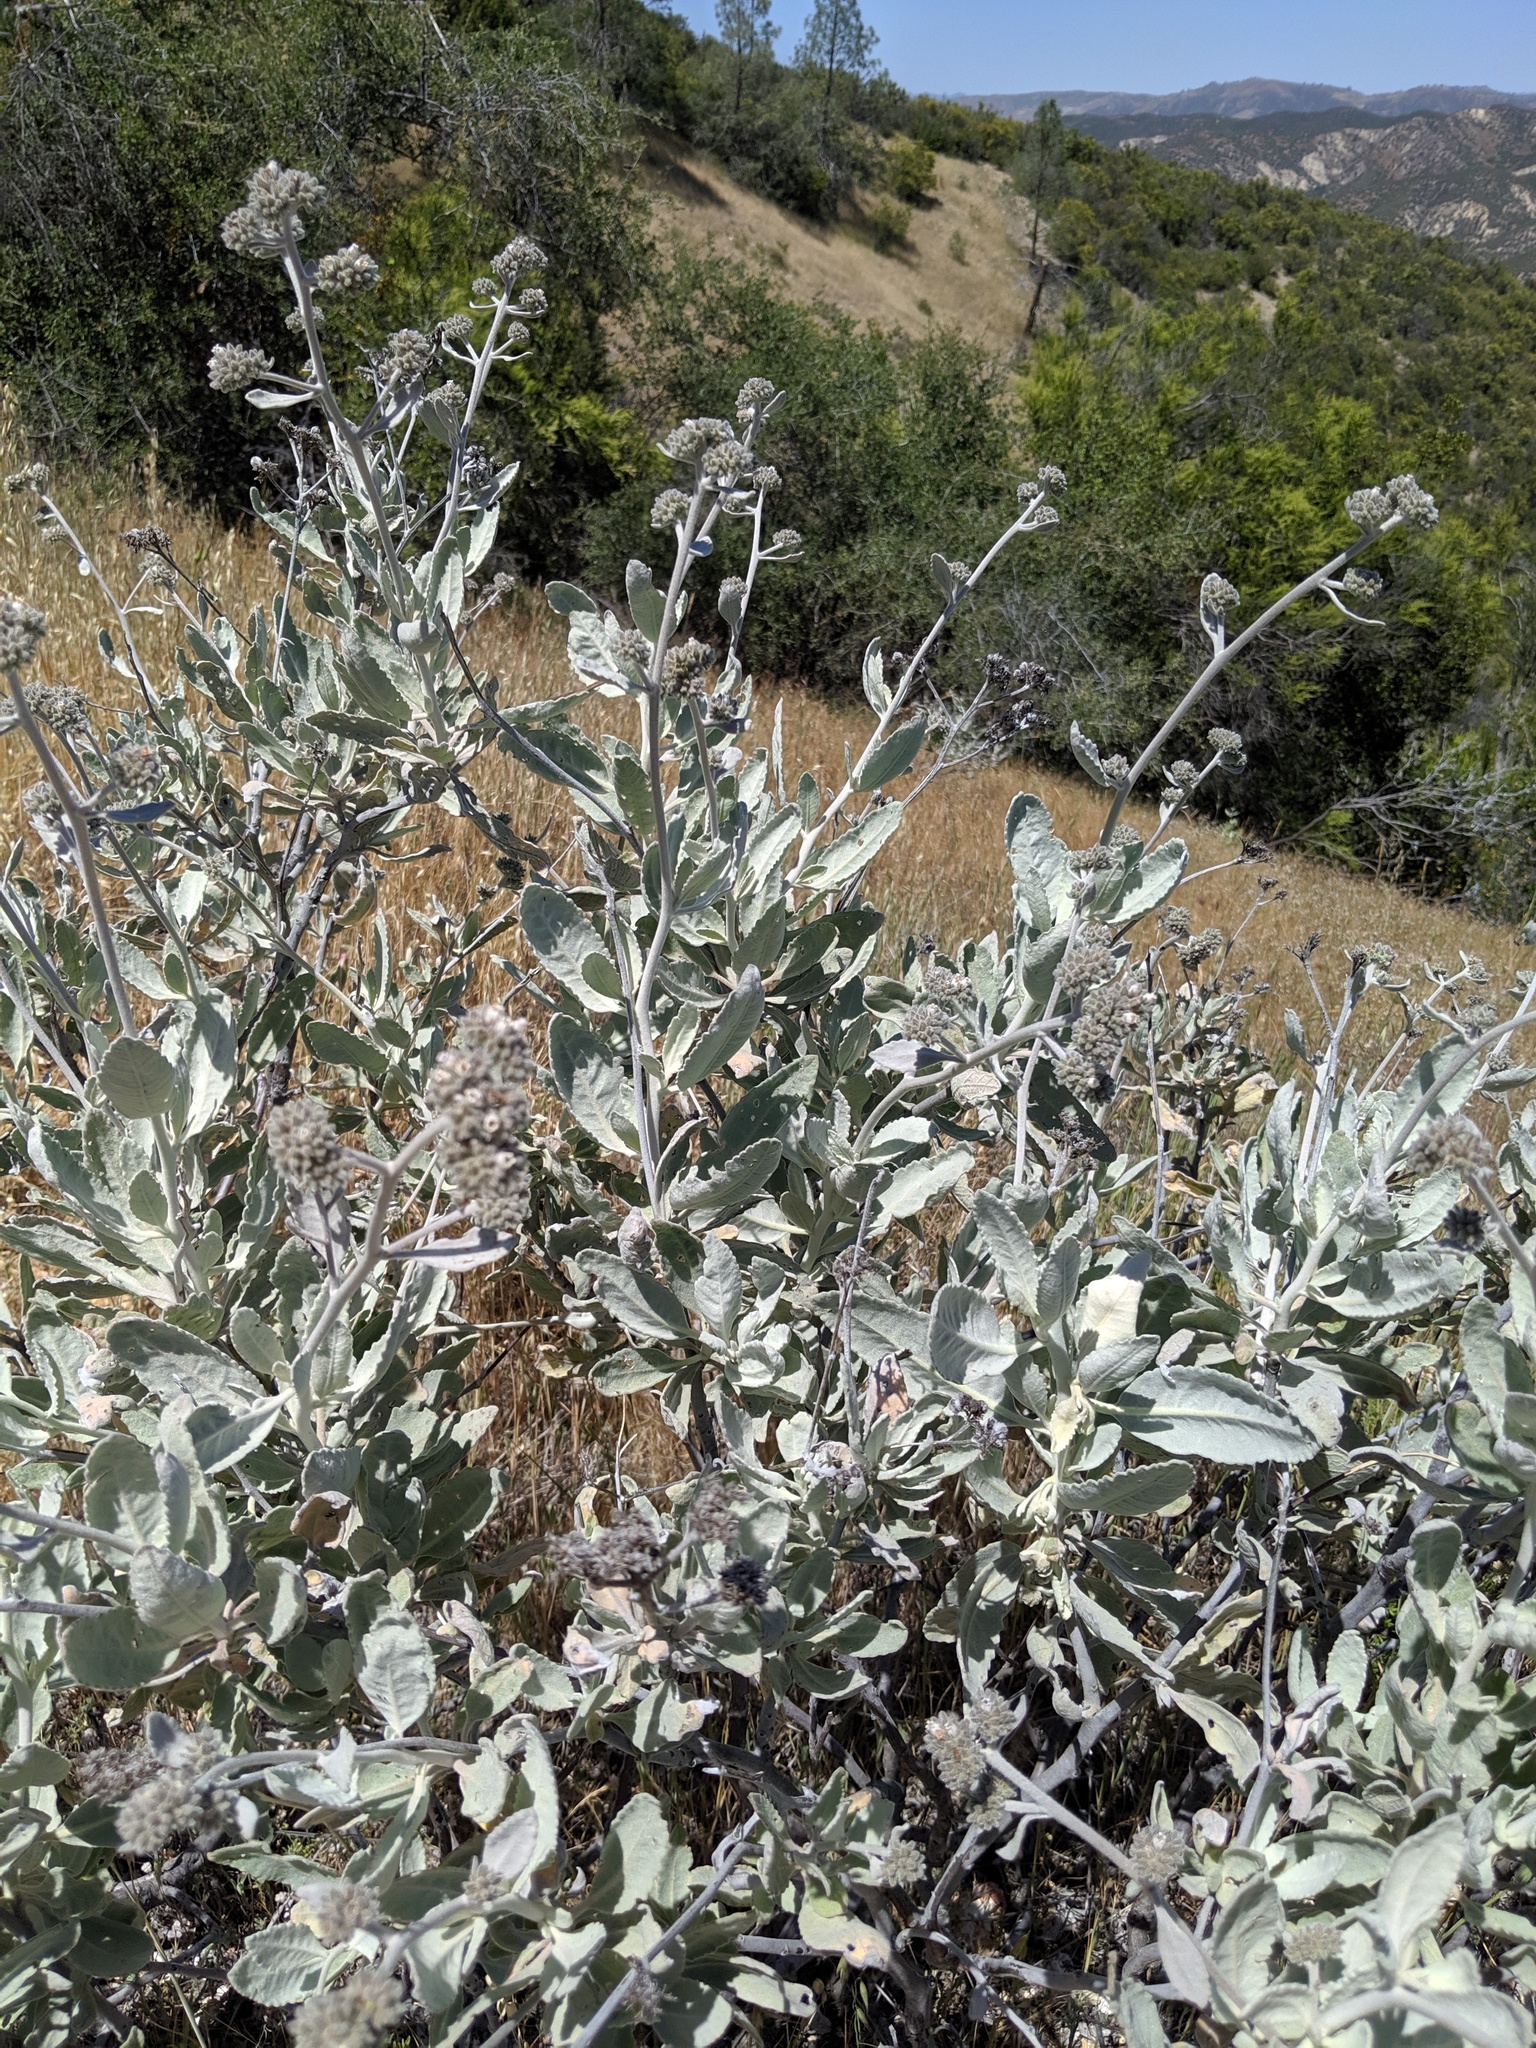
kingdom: Plantae
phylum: Tracheophyta
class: Magnoliopsida
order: Boraginales
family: Namaceae
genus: Eriodictyon
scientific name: Eriodictyon tomentosum
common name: Woolly yerba-santa
